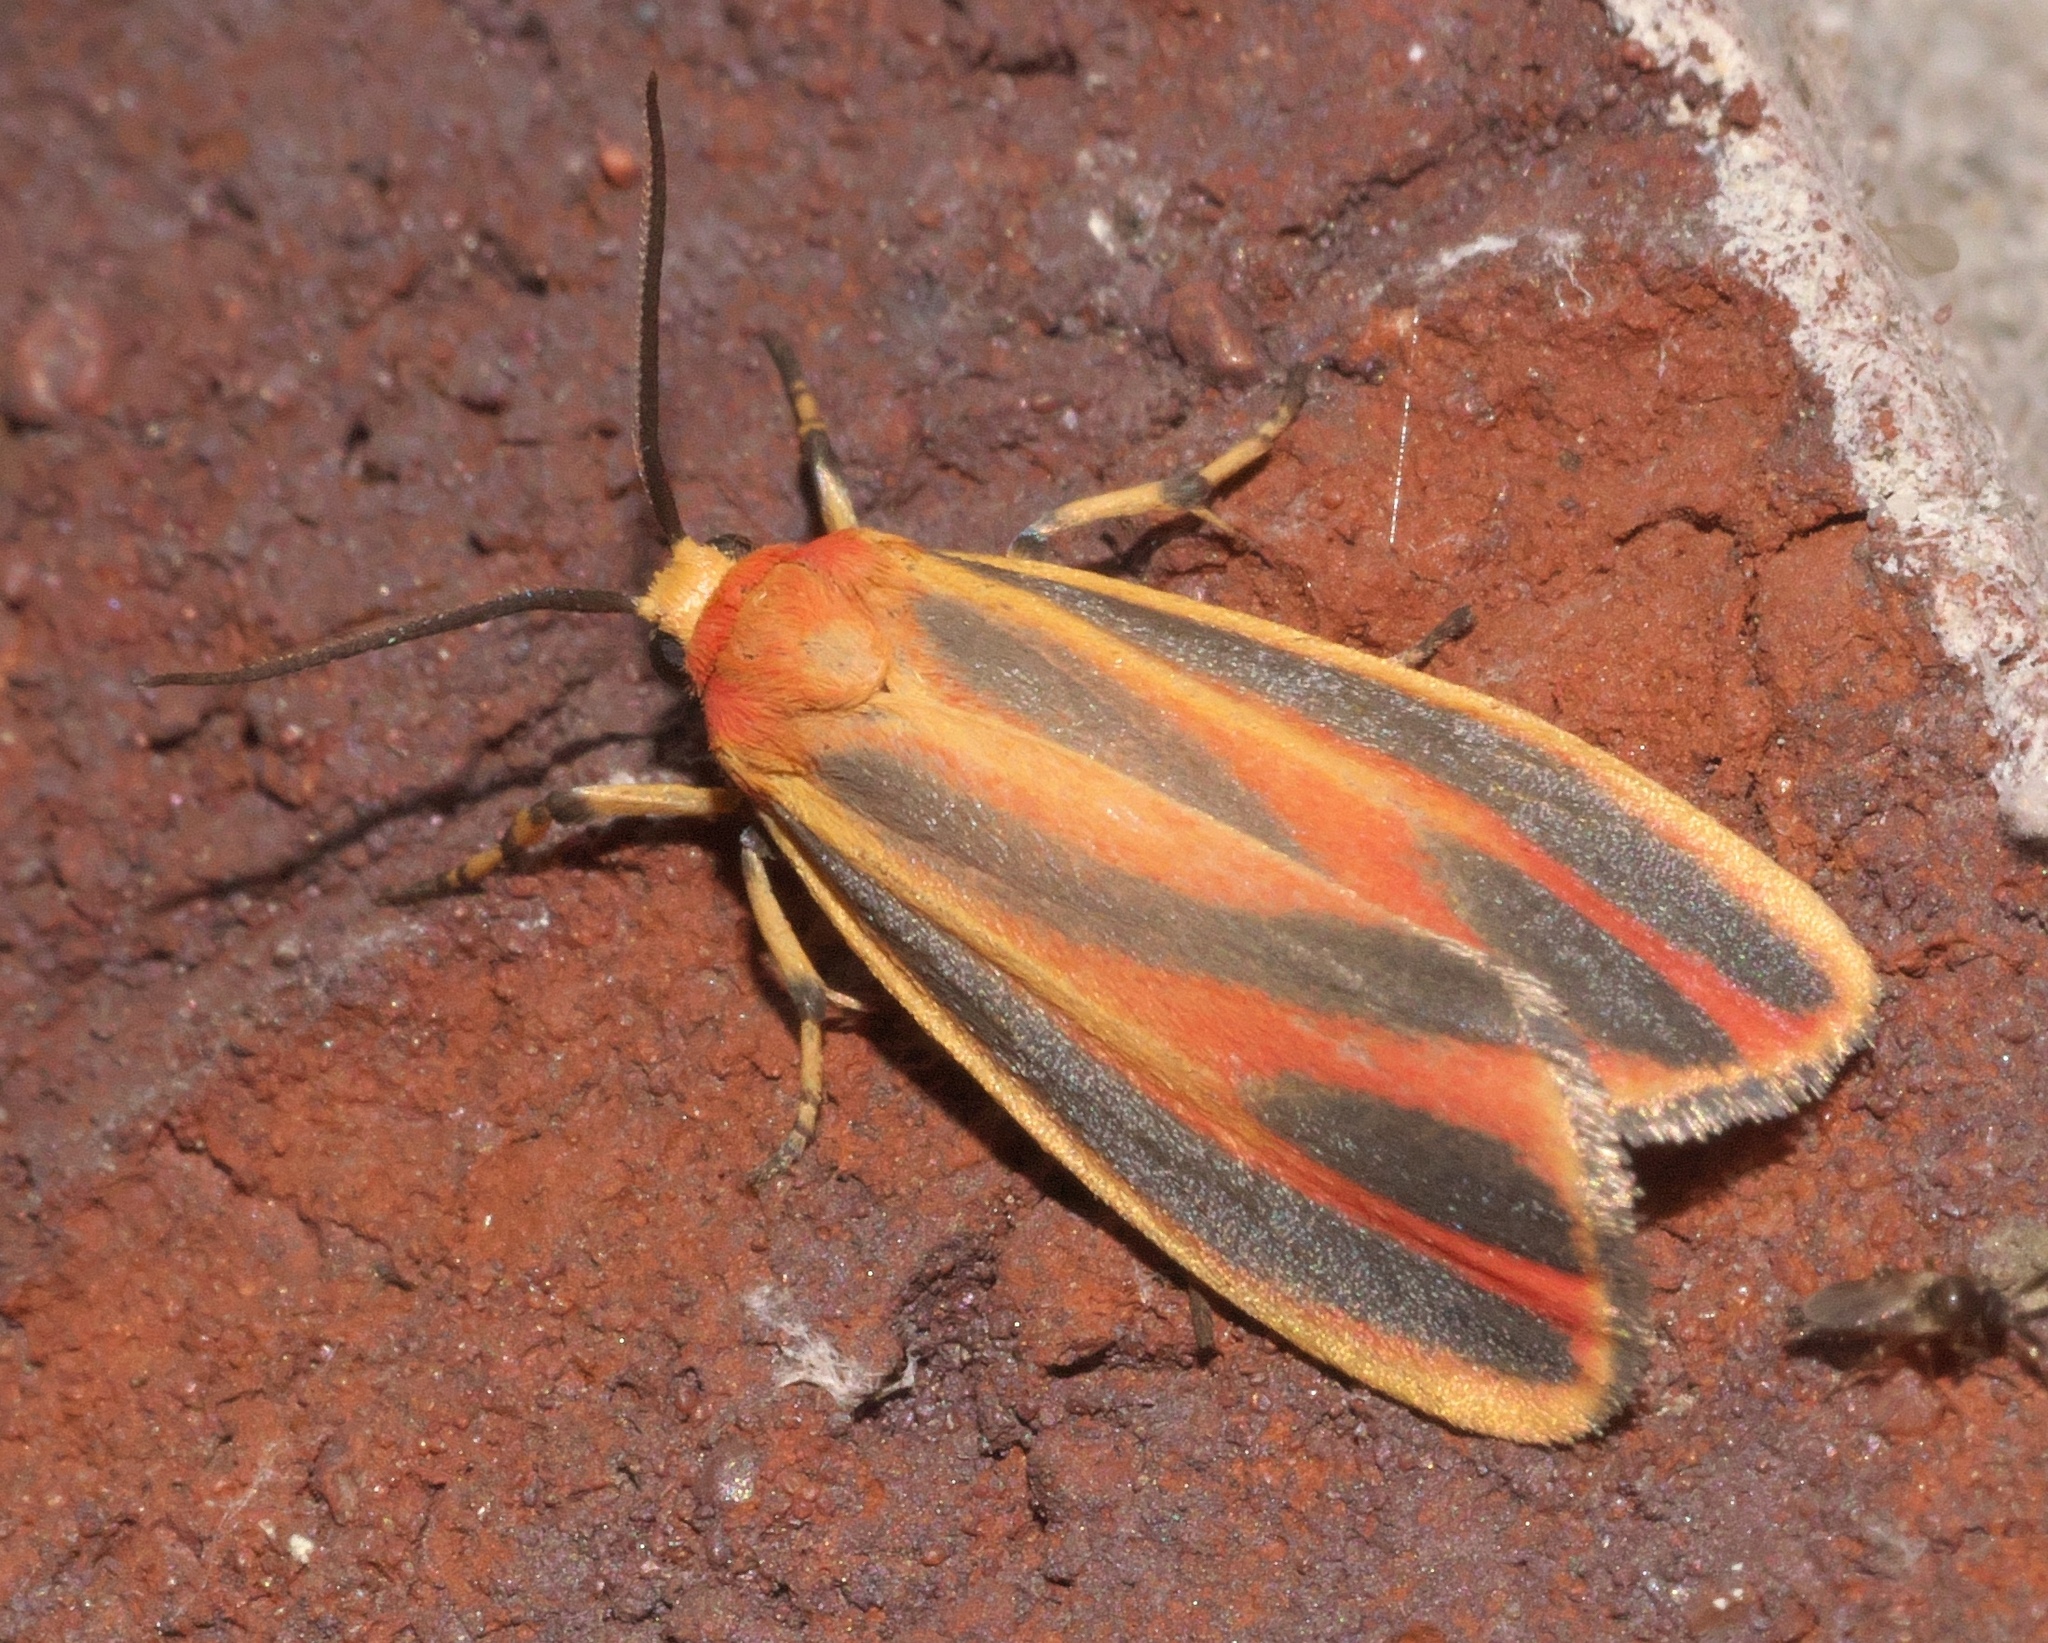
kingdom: Animalia
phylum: Arthropoda
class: Insecta
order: Lepidoptera
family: Erebidae
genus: Hypoprepia
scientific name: Hypoprepia fucosa
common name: Painted lichen moth
